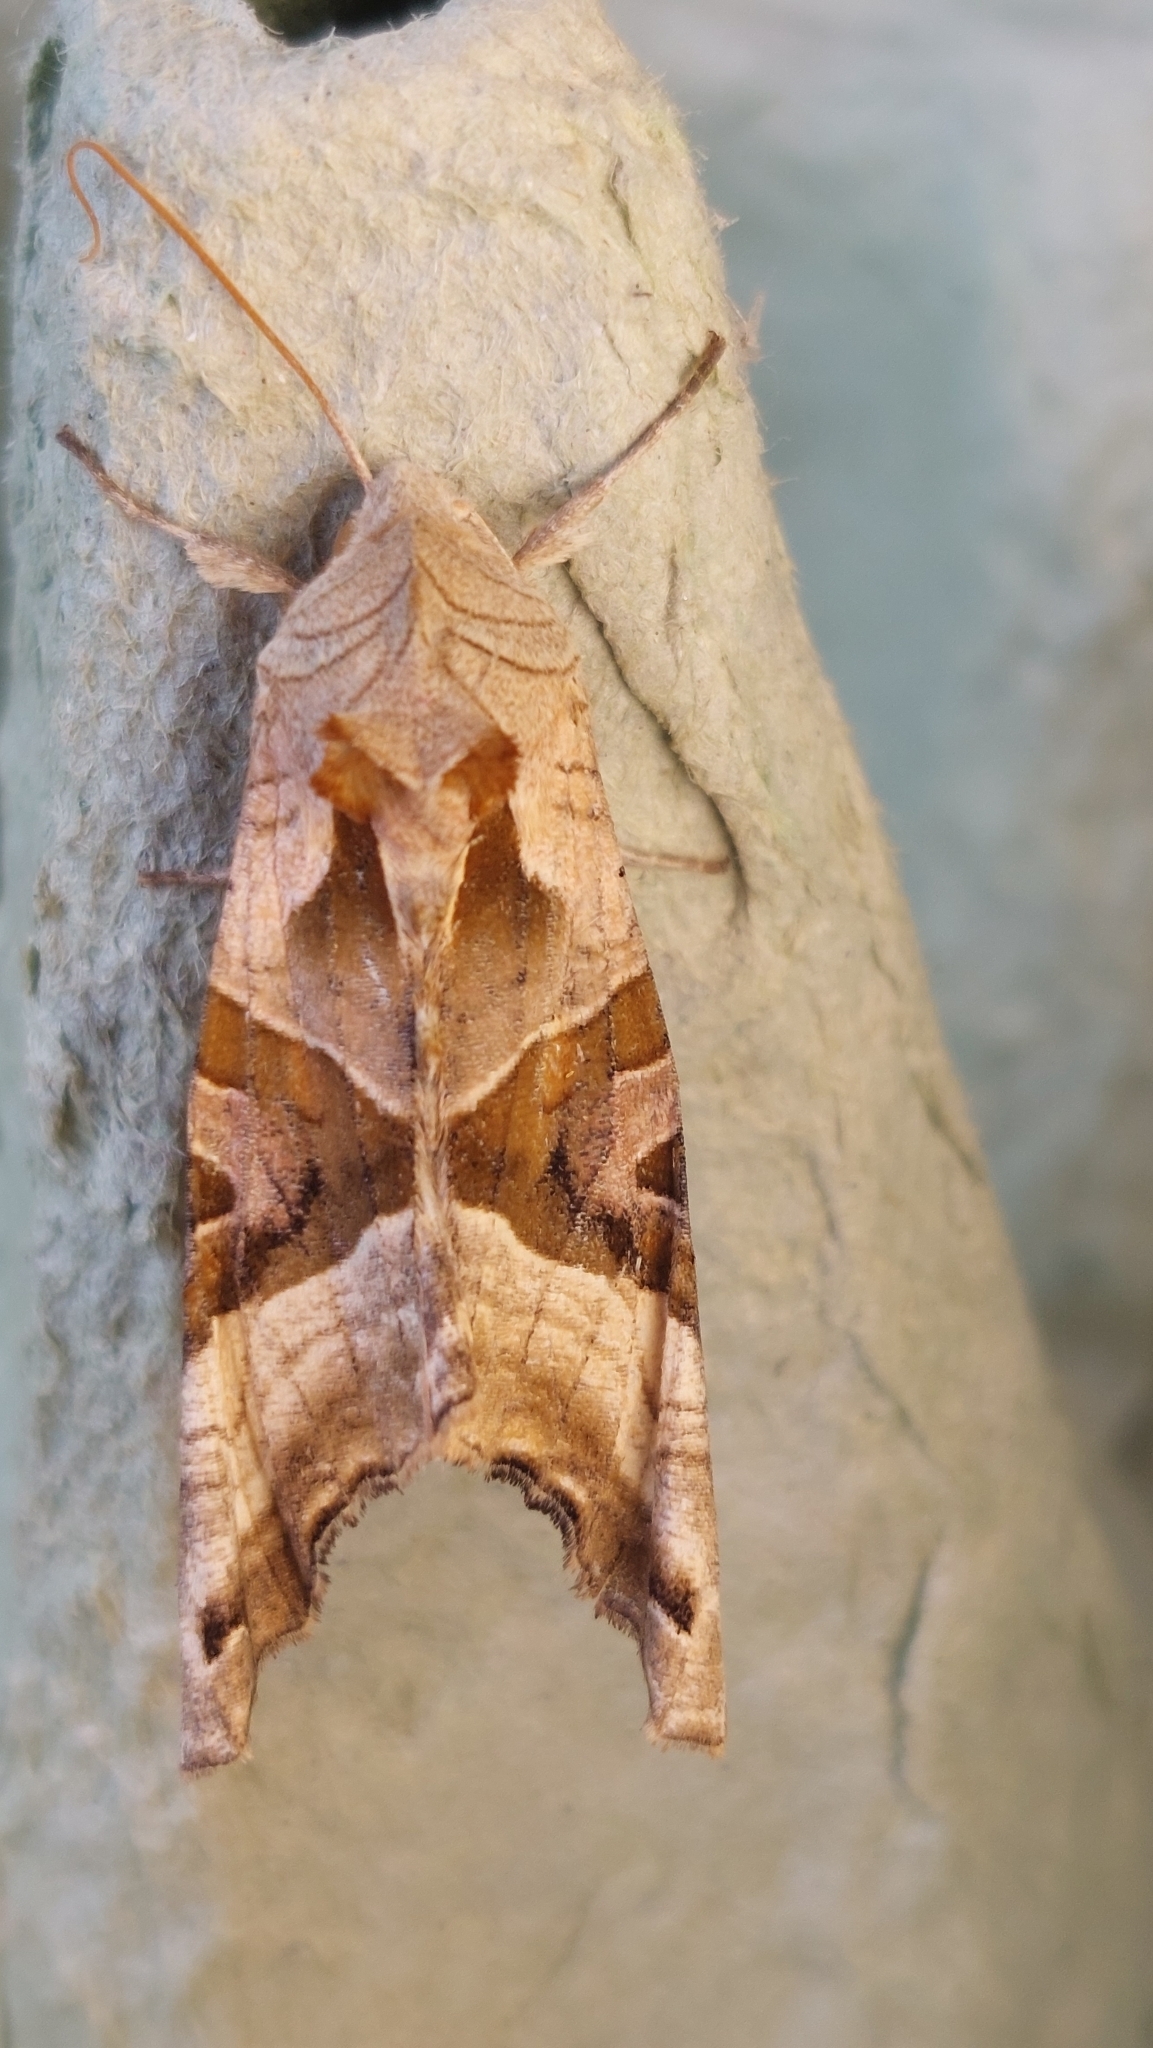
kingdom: Animalia
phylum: Arthropoda
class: Insecta
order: Lepidoptera
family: Noctuidae
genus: Phlogophora
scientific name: Phlogophora meticulosa
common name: Angle shades
